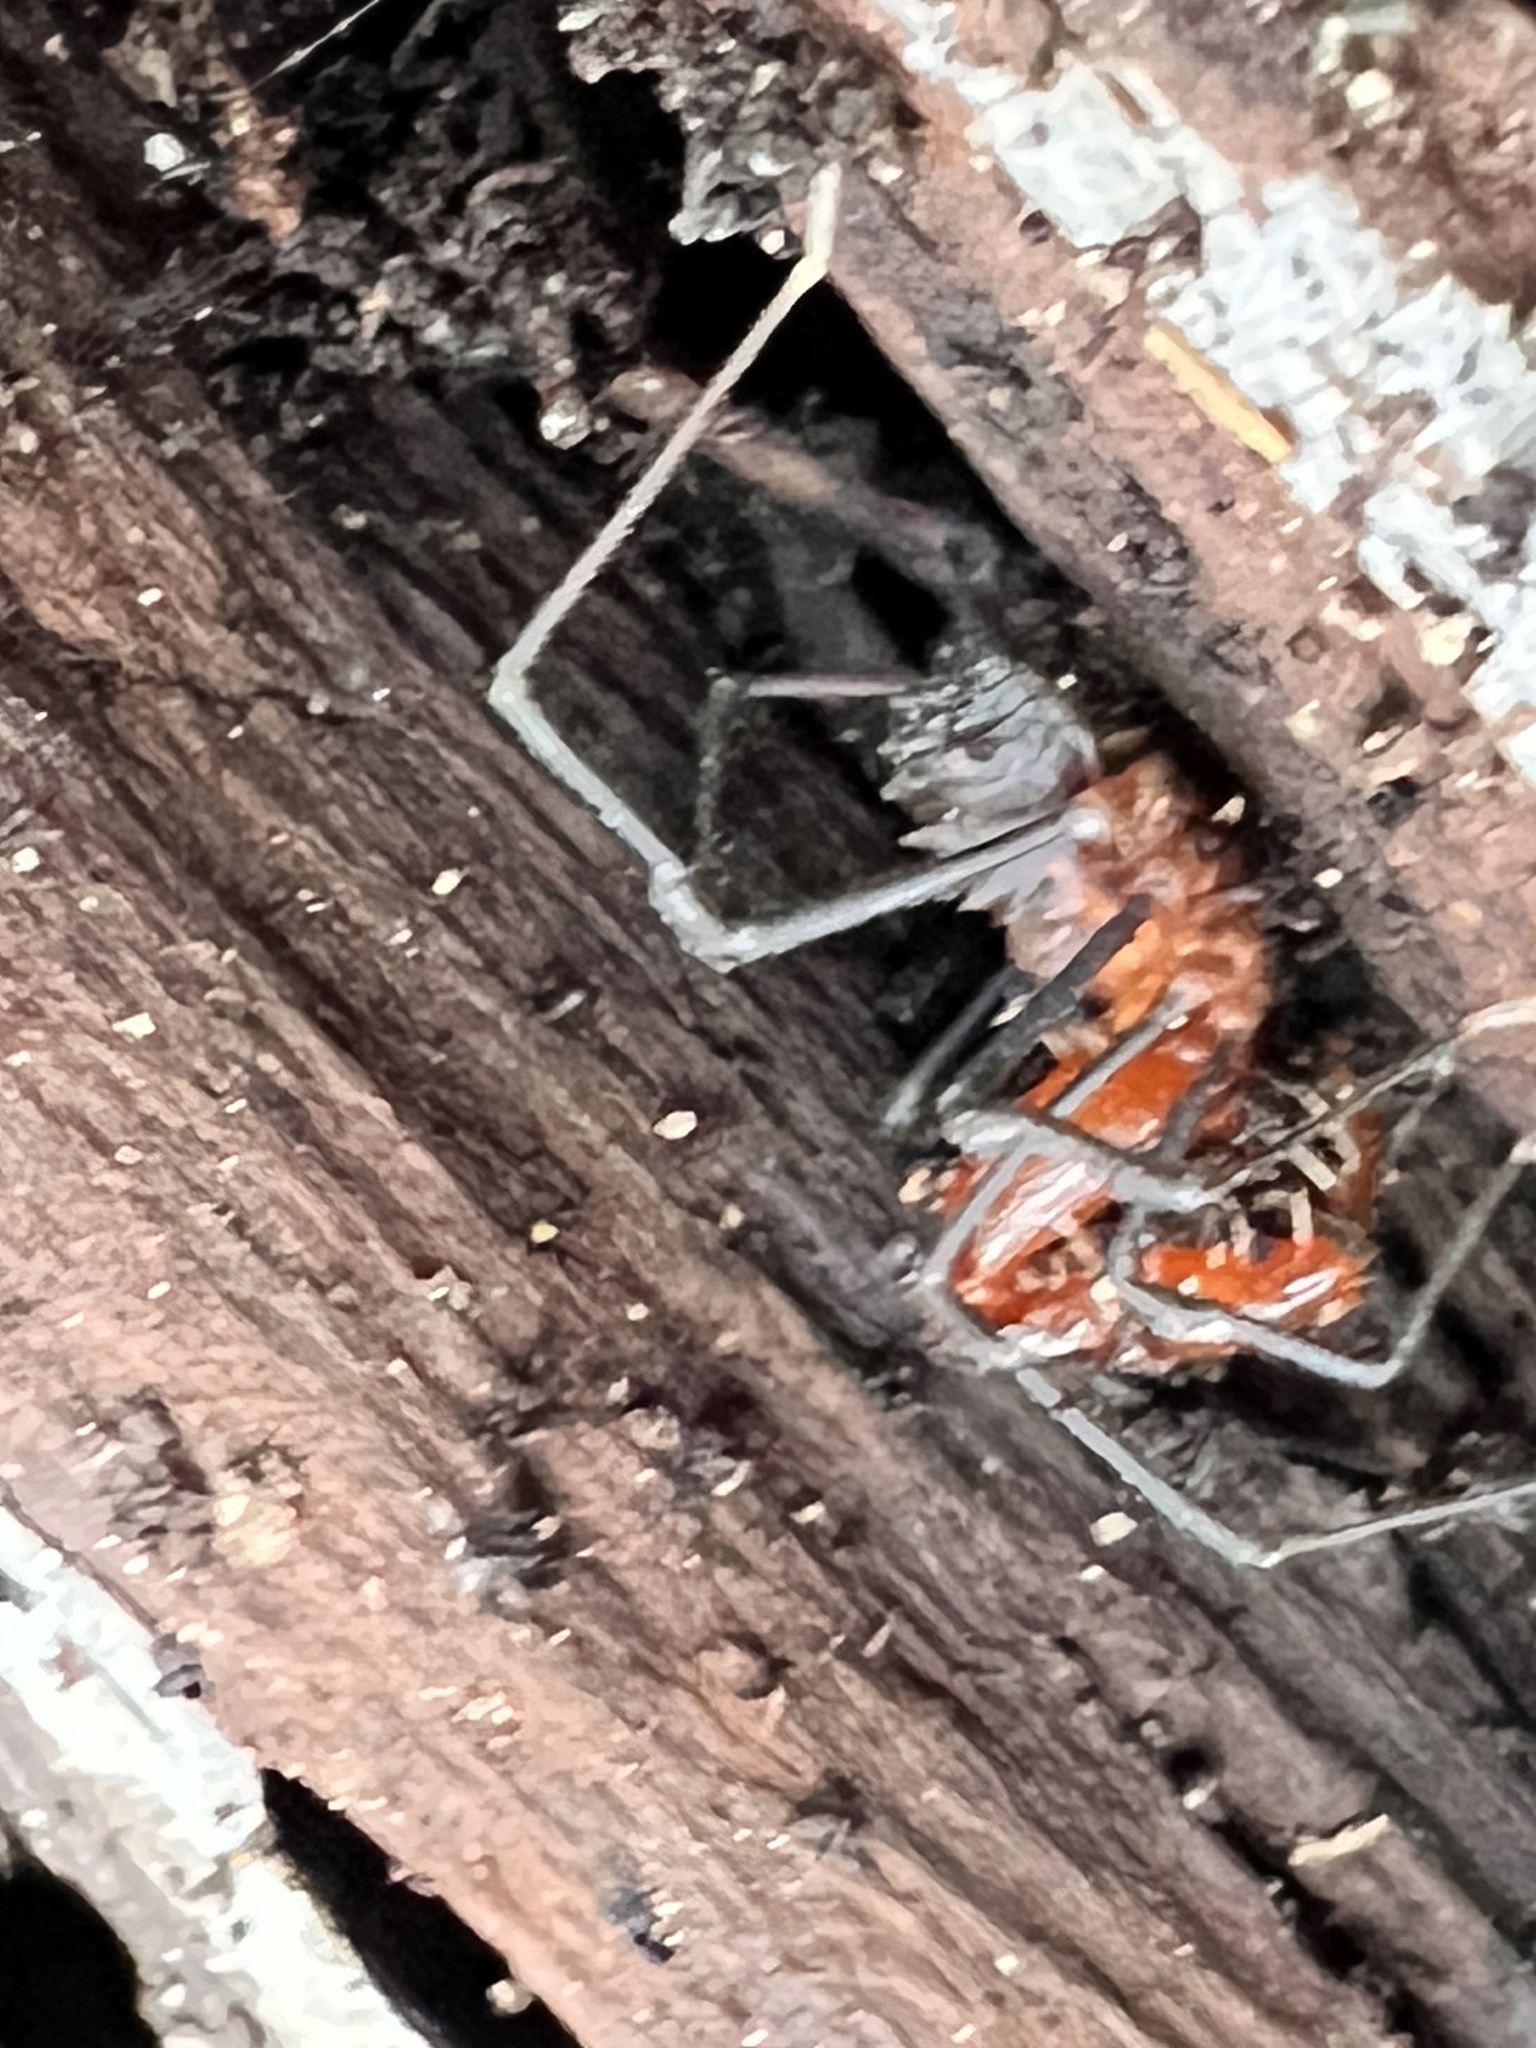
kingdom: Animalia
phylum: Arthropoda
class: Arachnida
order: Opiliones
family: Triaenonychidae
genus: Sorensenella
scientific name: Sorensenella prehensor
